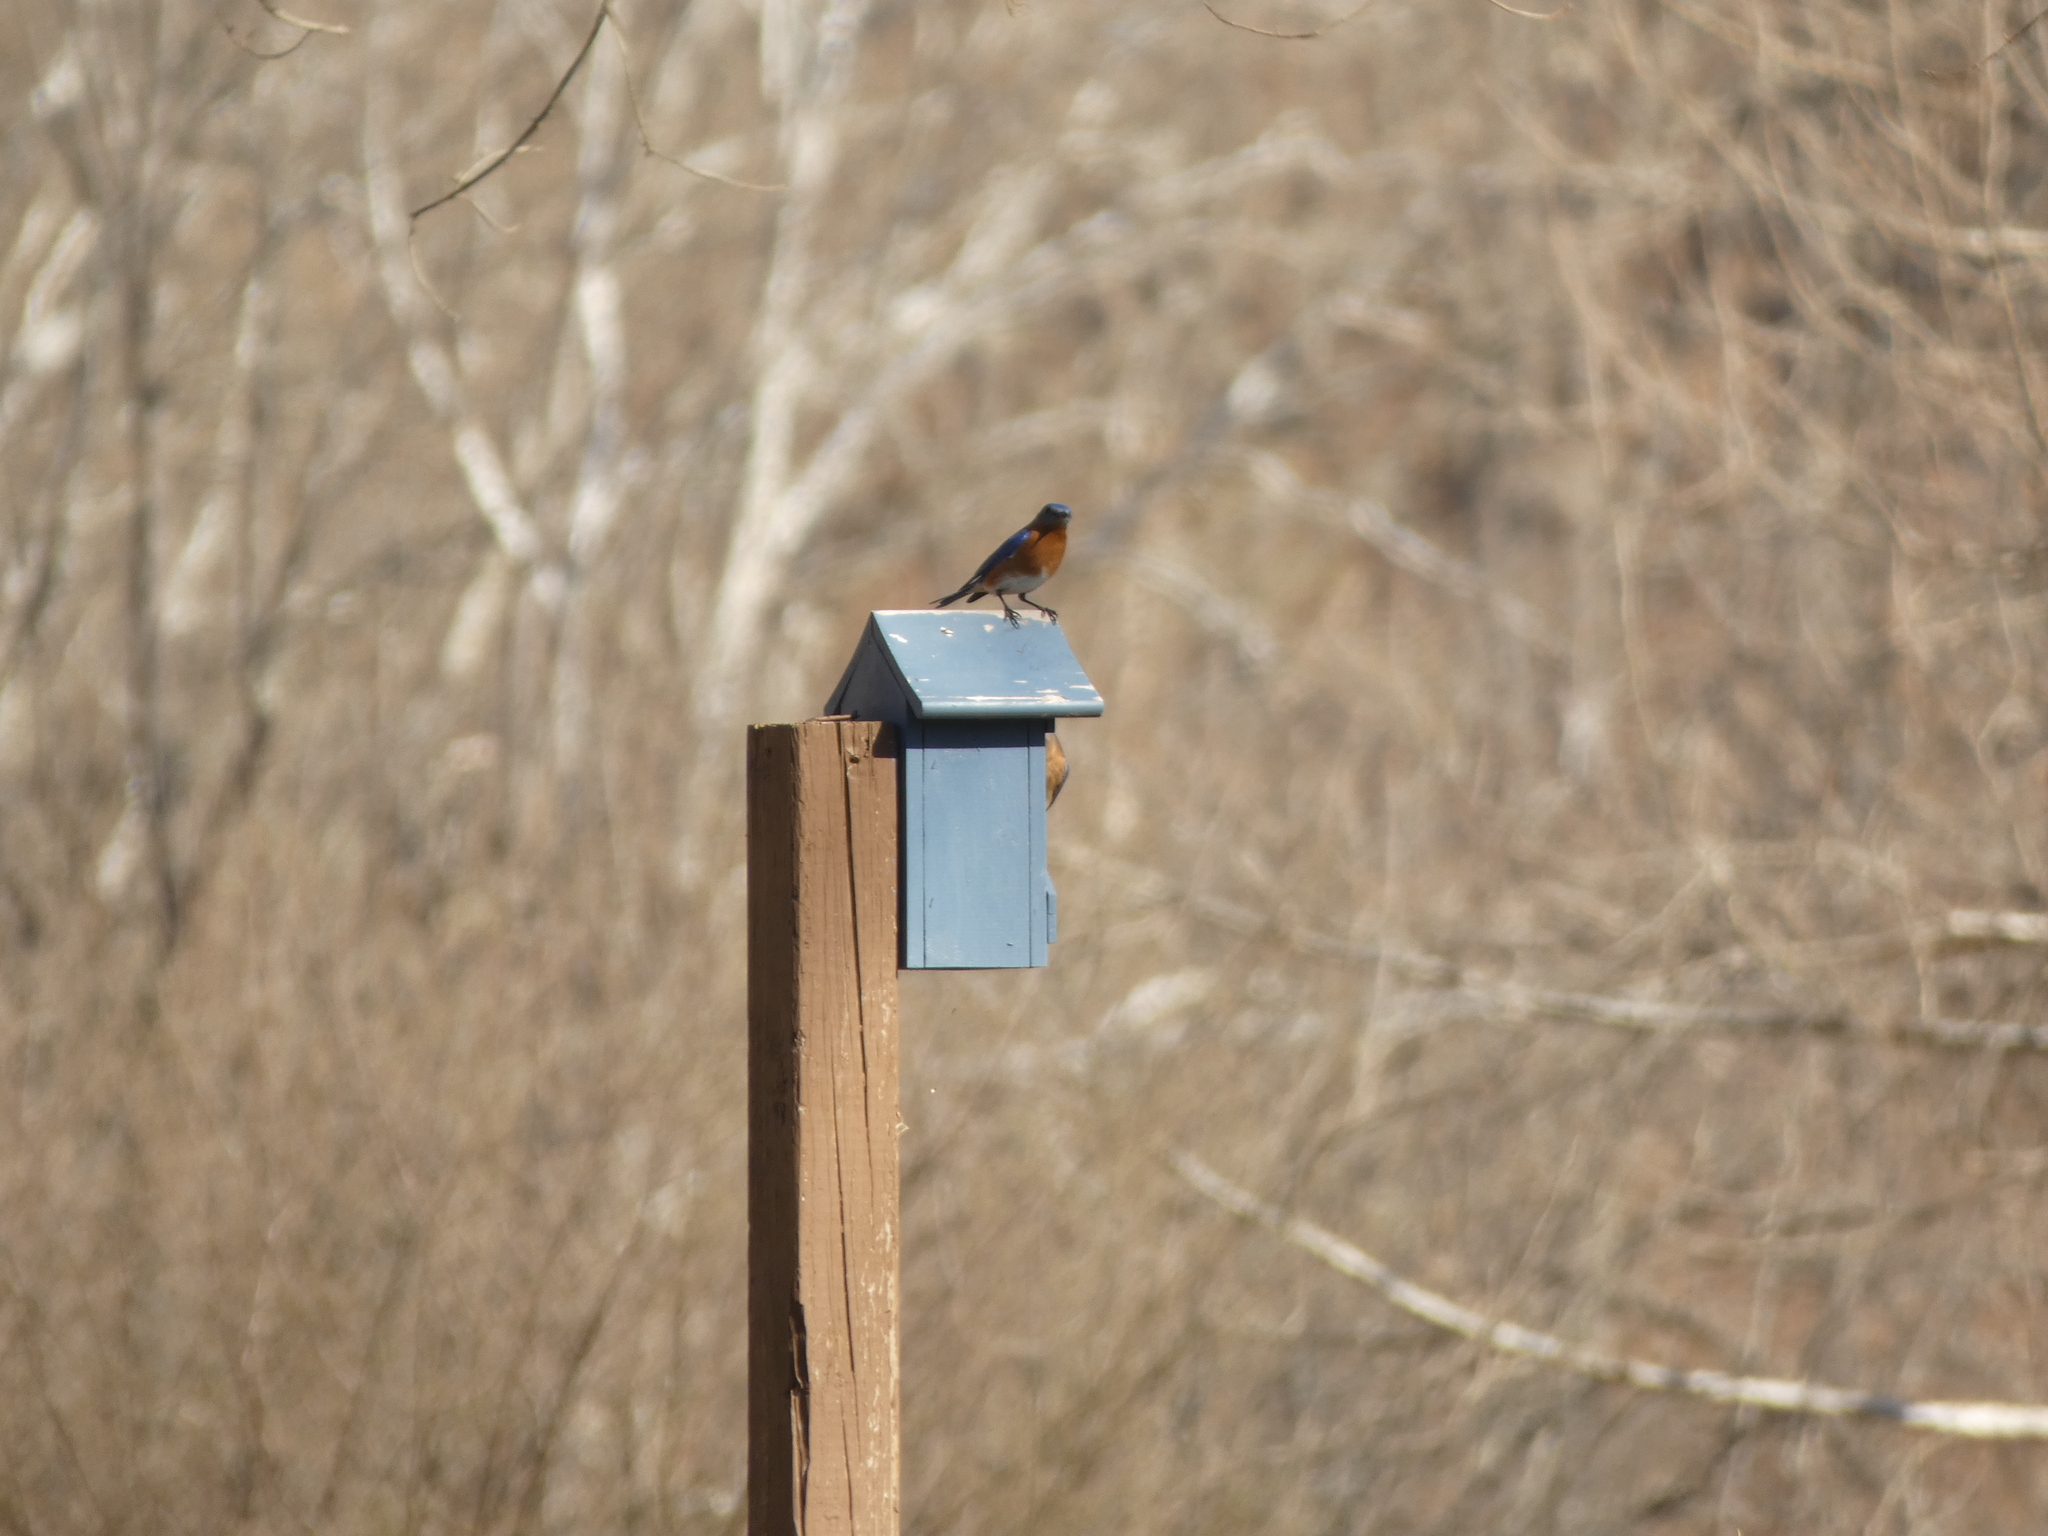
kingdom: Animalia
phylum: Chordata
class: Aves
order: Passeriformes
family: Turdidae
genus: Sialia
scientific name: Sialia sialis
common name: Eastern bluebird
